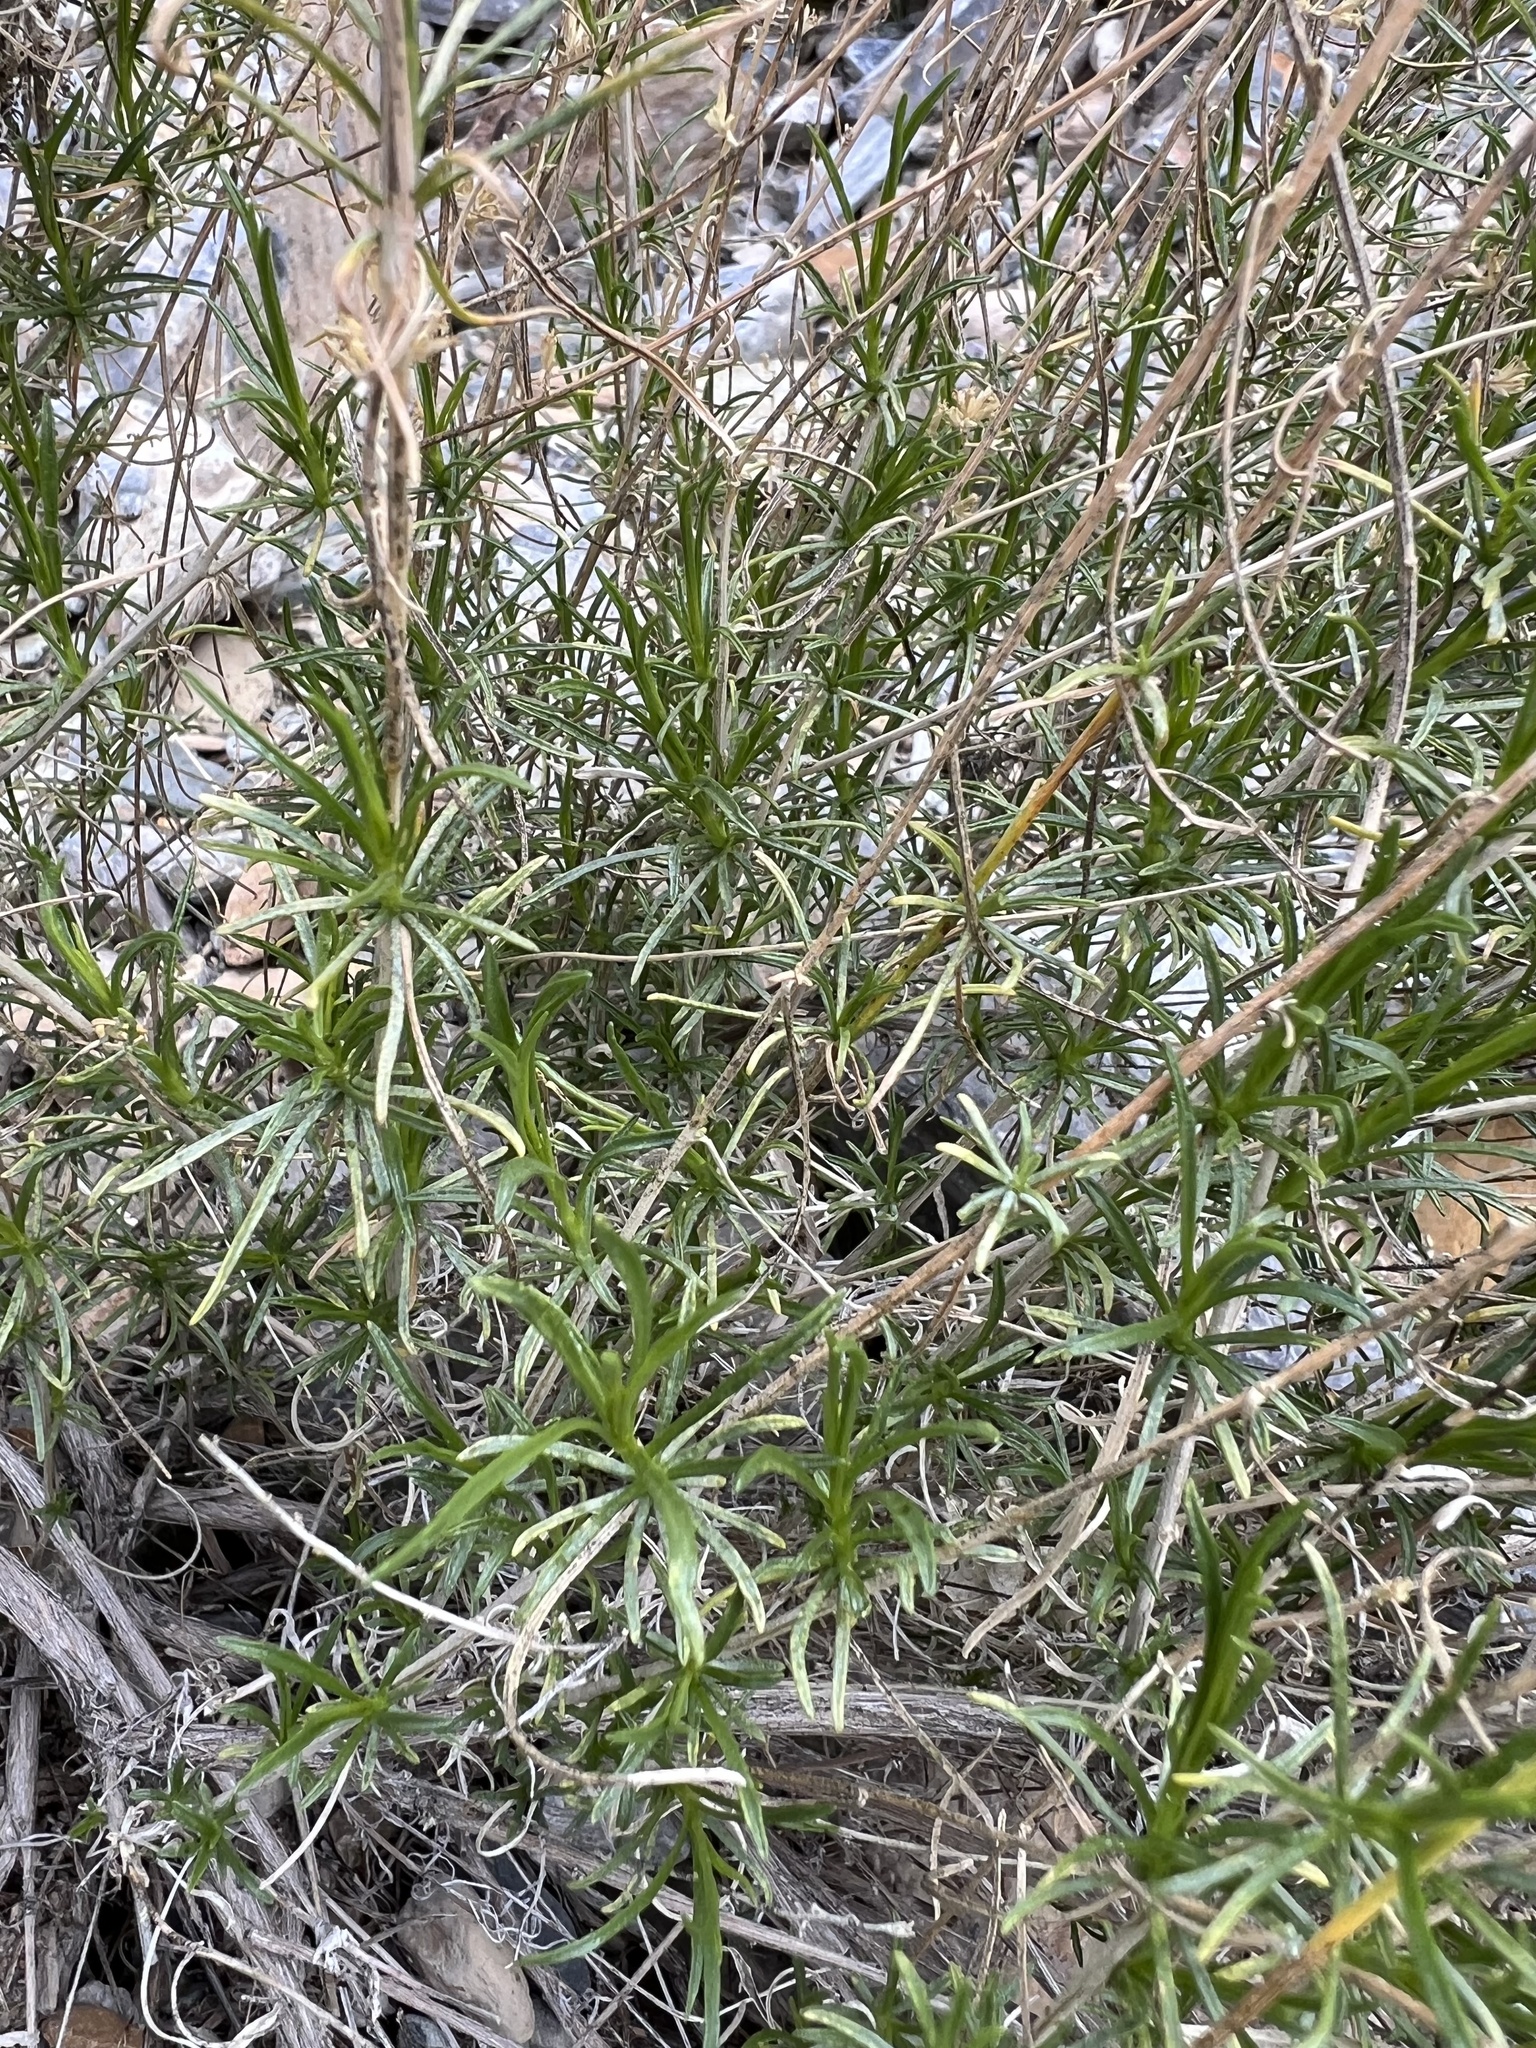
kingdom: Plantae
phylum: Tracheophyta
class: Magnoliopsida
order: Asterales
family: Asteraceae
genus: Gutierrezia
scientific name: Gutierrezia microcephala
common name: Thread snakeweed
